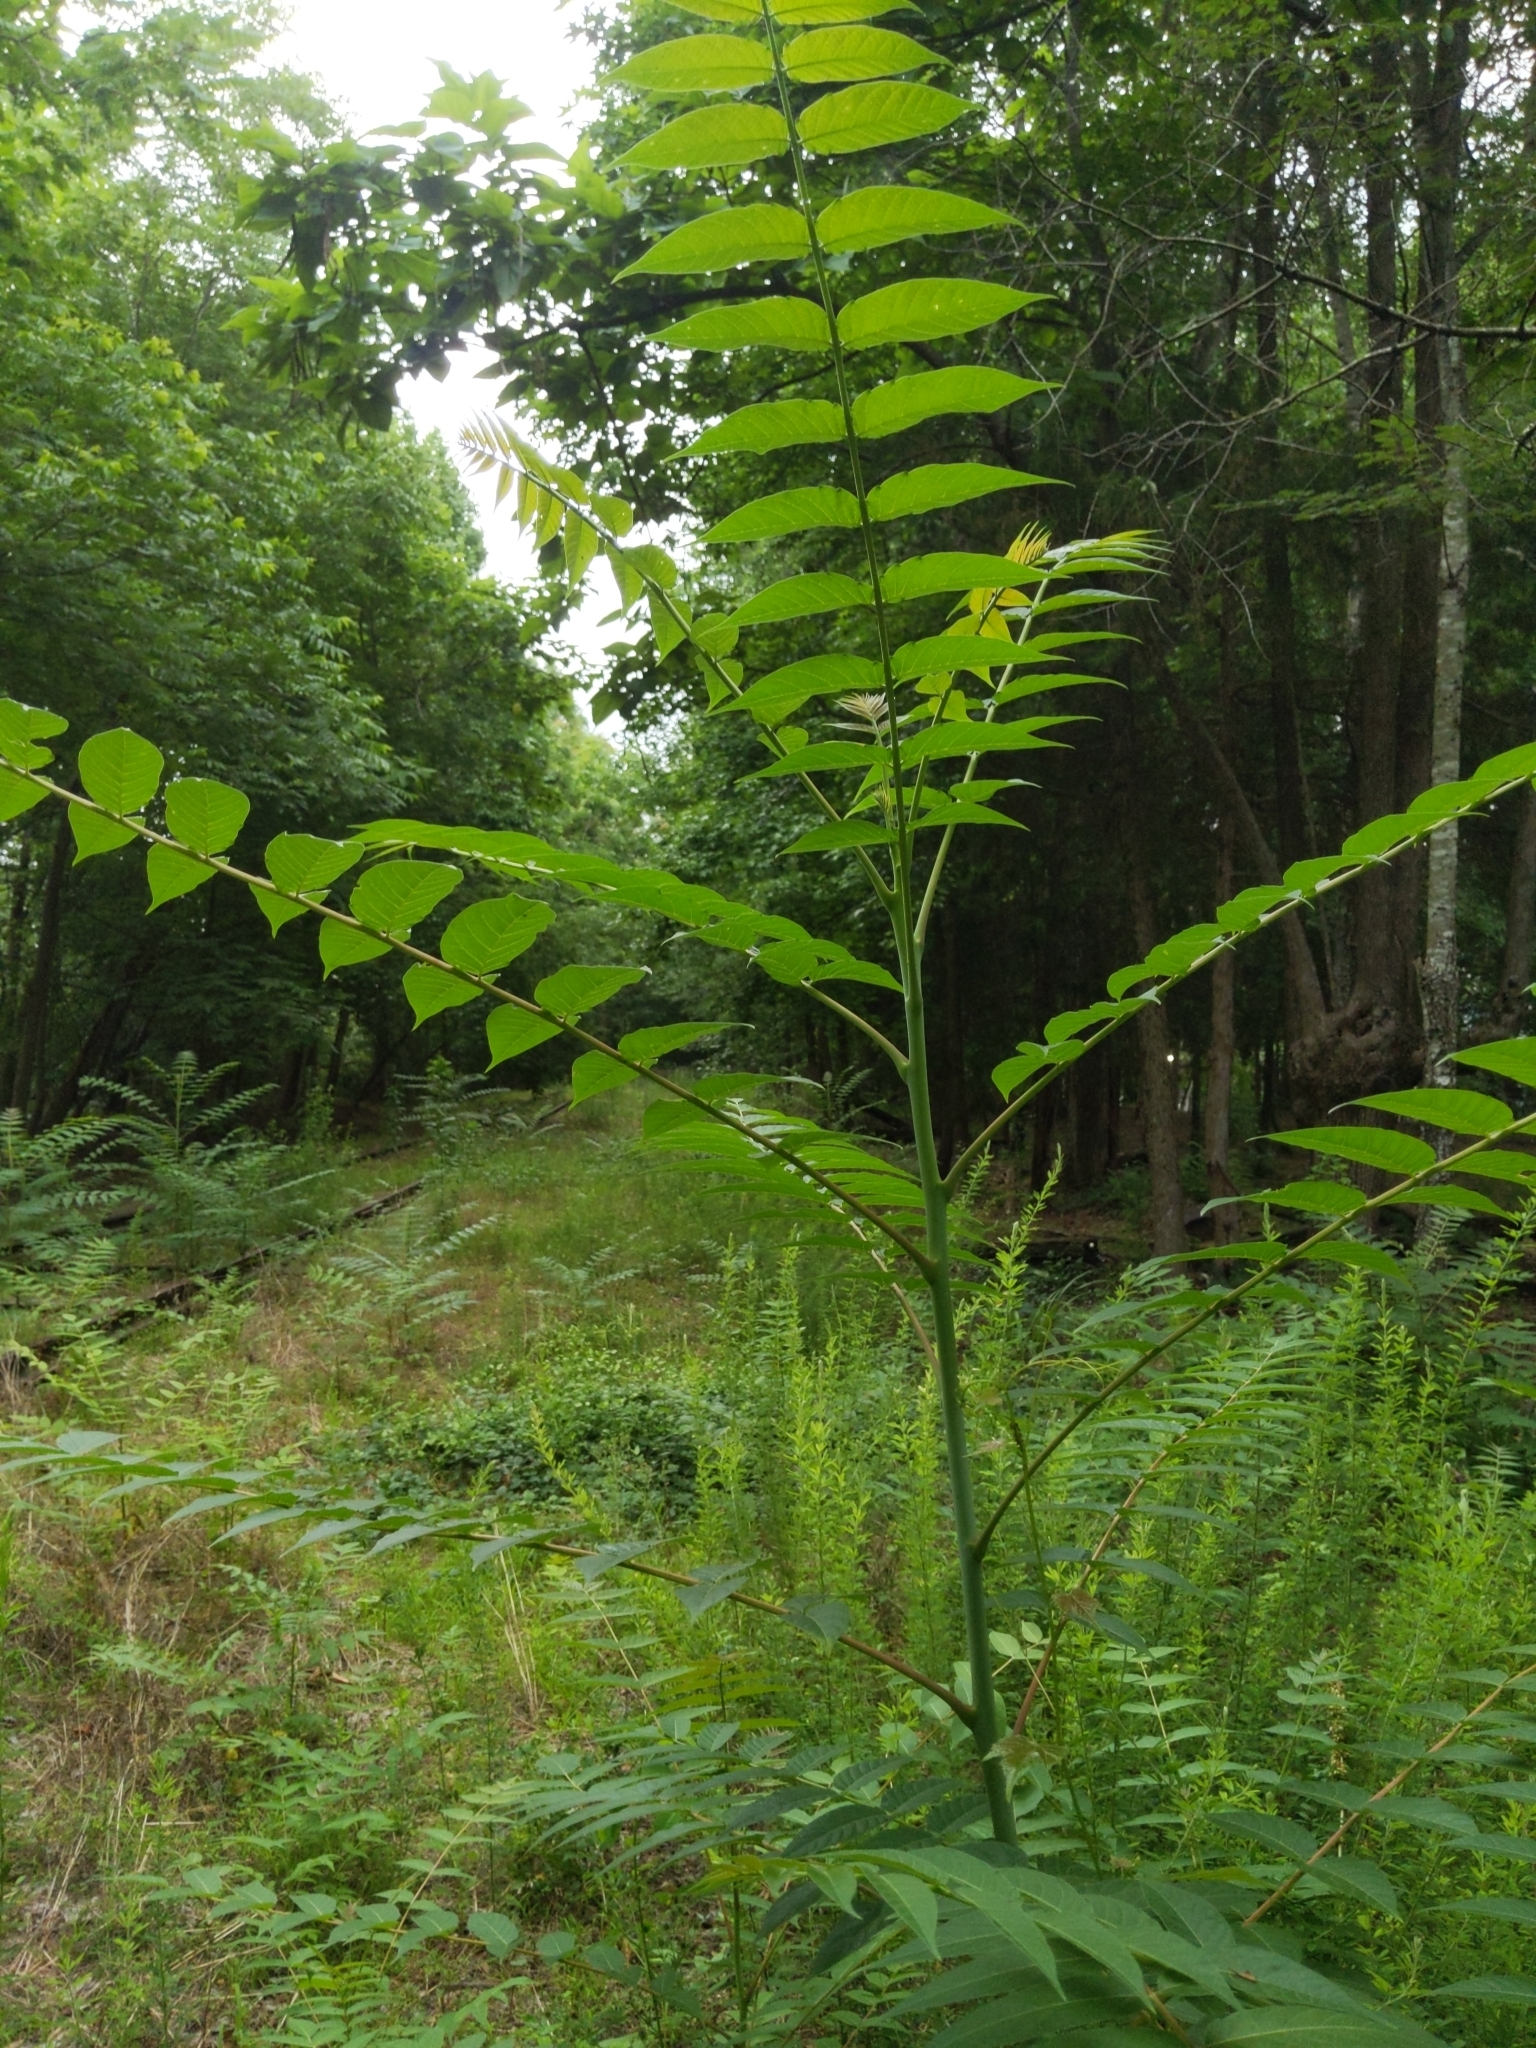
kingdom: Plantae
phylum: Tracheophyta
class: Magnoliopsida
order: Sapindales
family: Simaroubaceae
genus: Ailanthus
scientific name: Ailanthus altissima
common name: Tree-of-heaven
